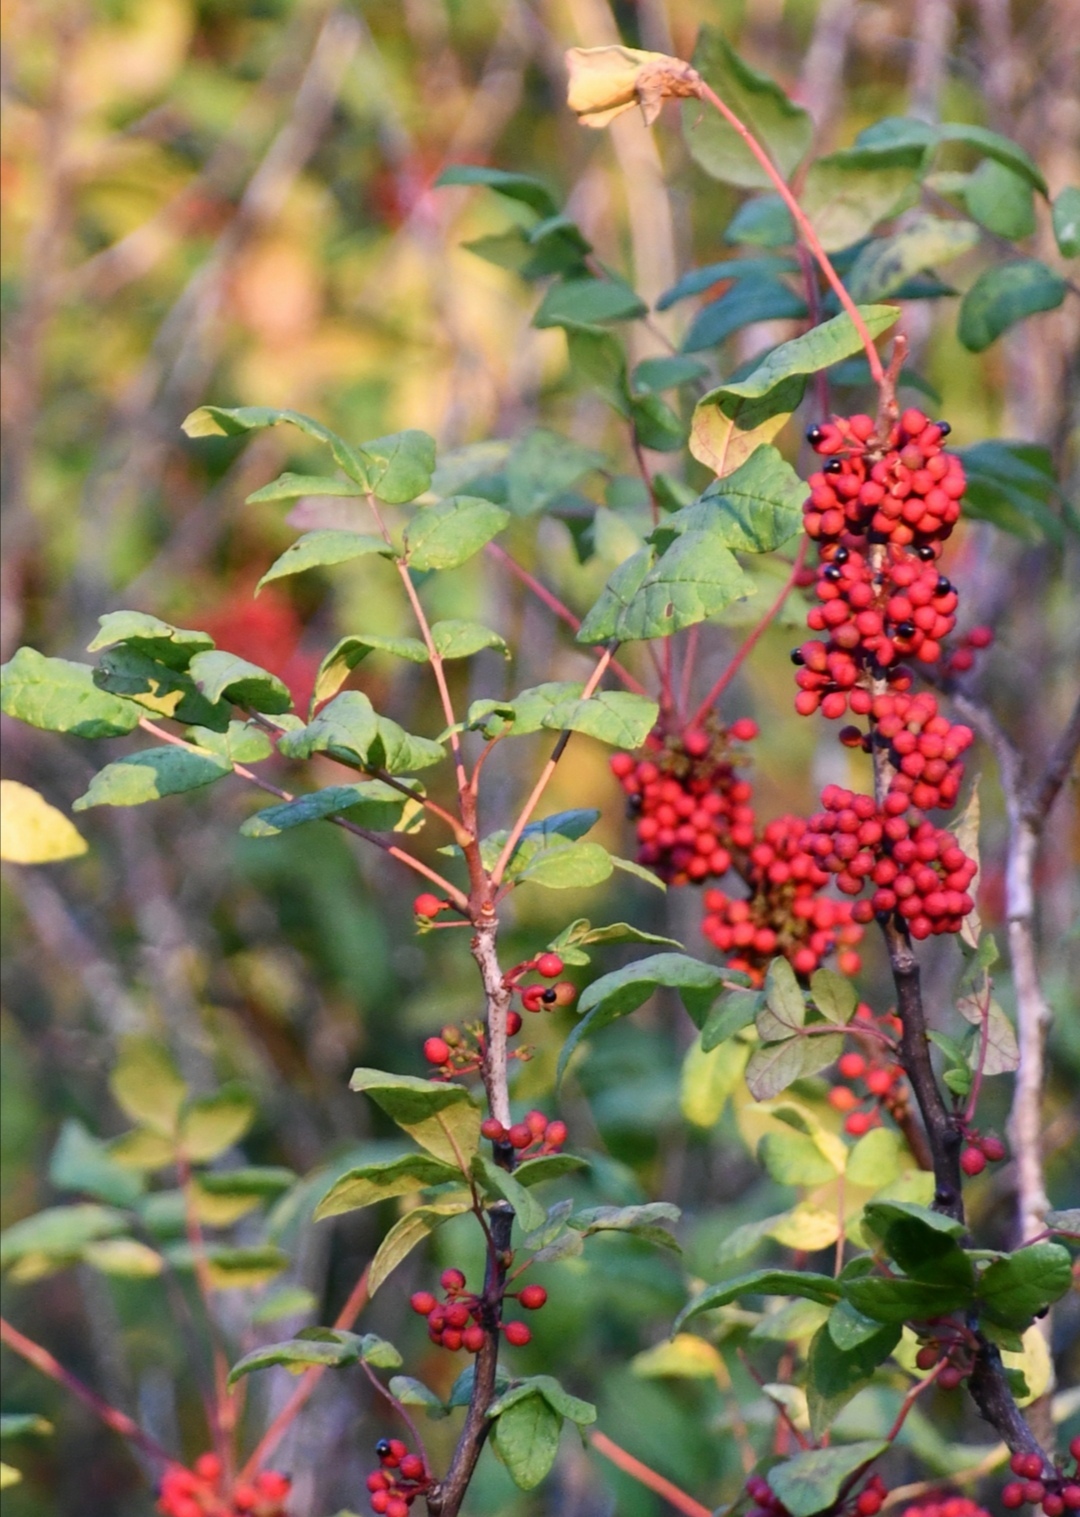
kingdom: Plantae
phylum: Tracheophyta
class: Magnoliopsida
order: Sapindales
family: Rutaceae
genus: Zanthoxylum
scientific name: Zanthoxylum americanum
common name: Northern prickly-ash
